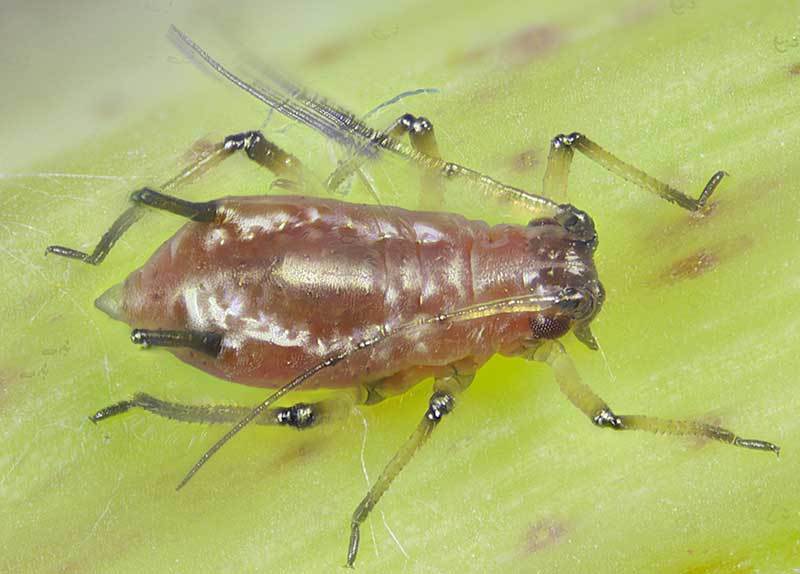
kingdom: Animalia
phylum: Arthropoda
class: Insecta
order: Hemiptera
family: Aphididae
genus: Uroleucon
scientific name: Uroleucon
